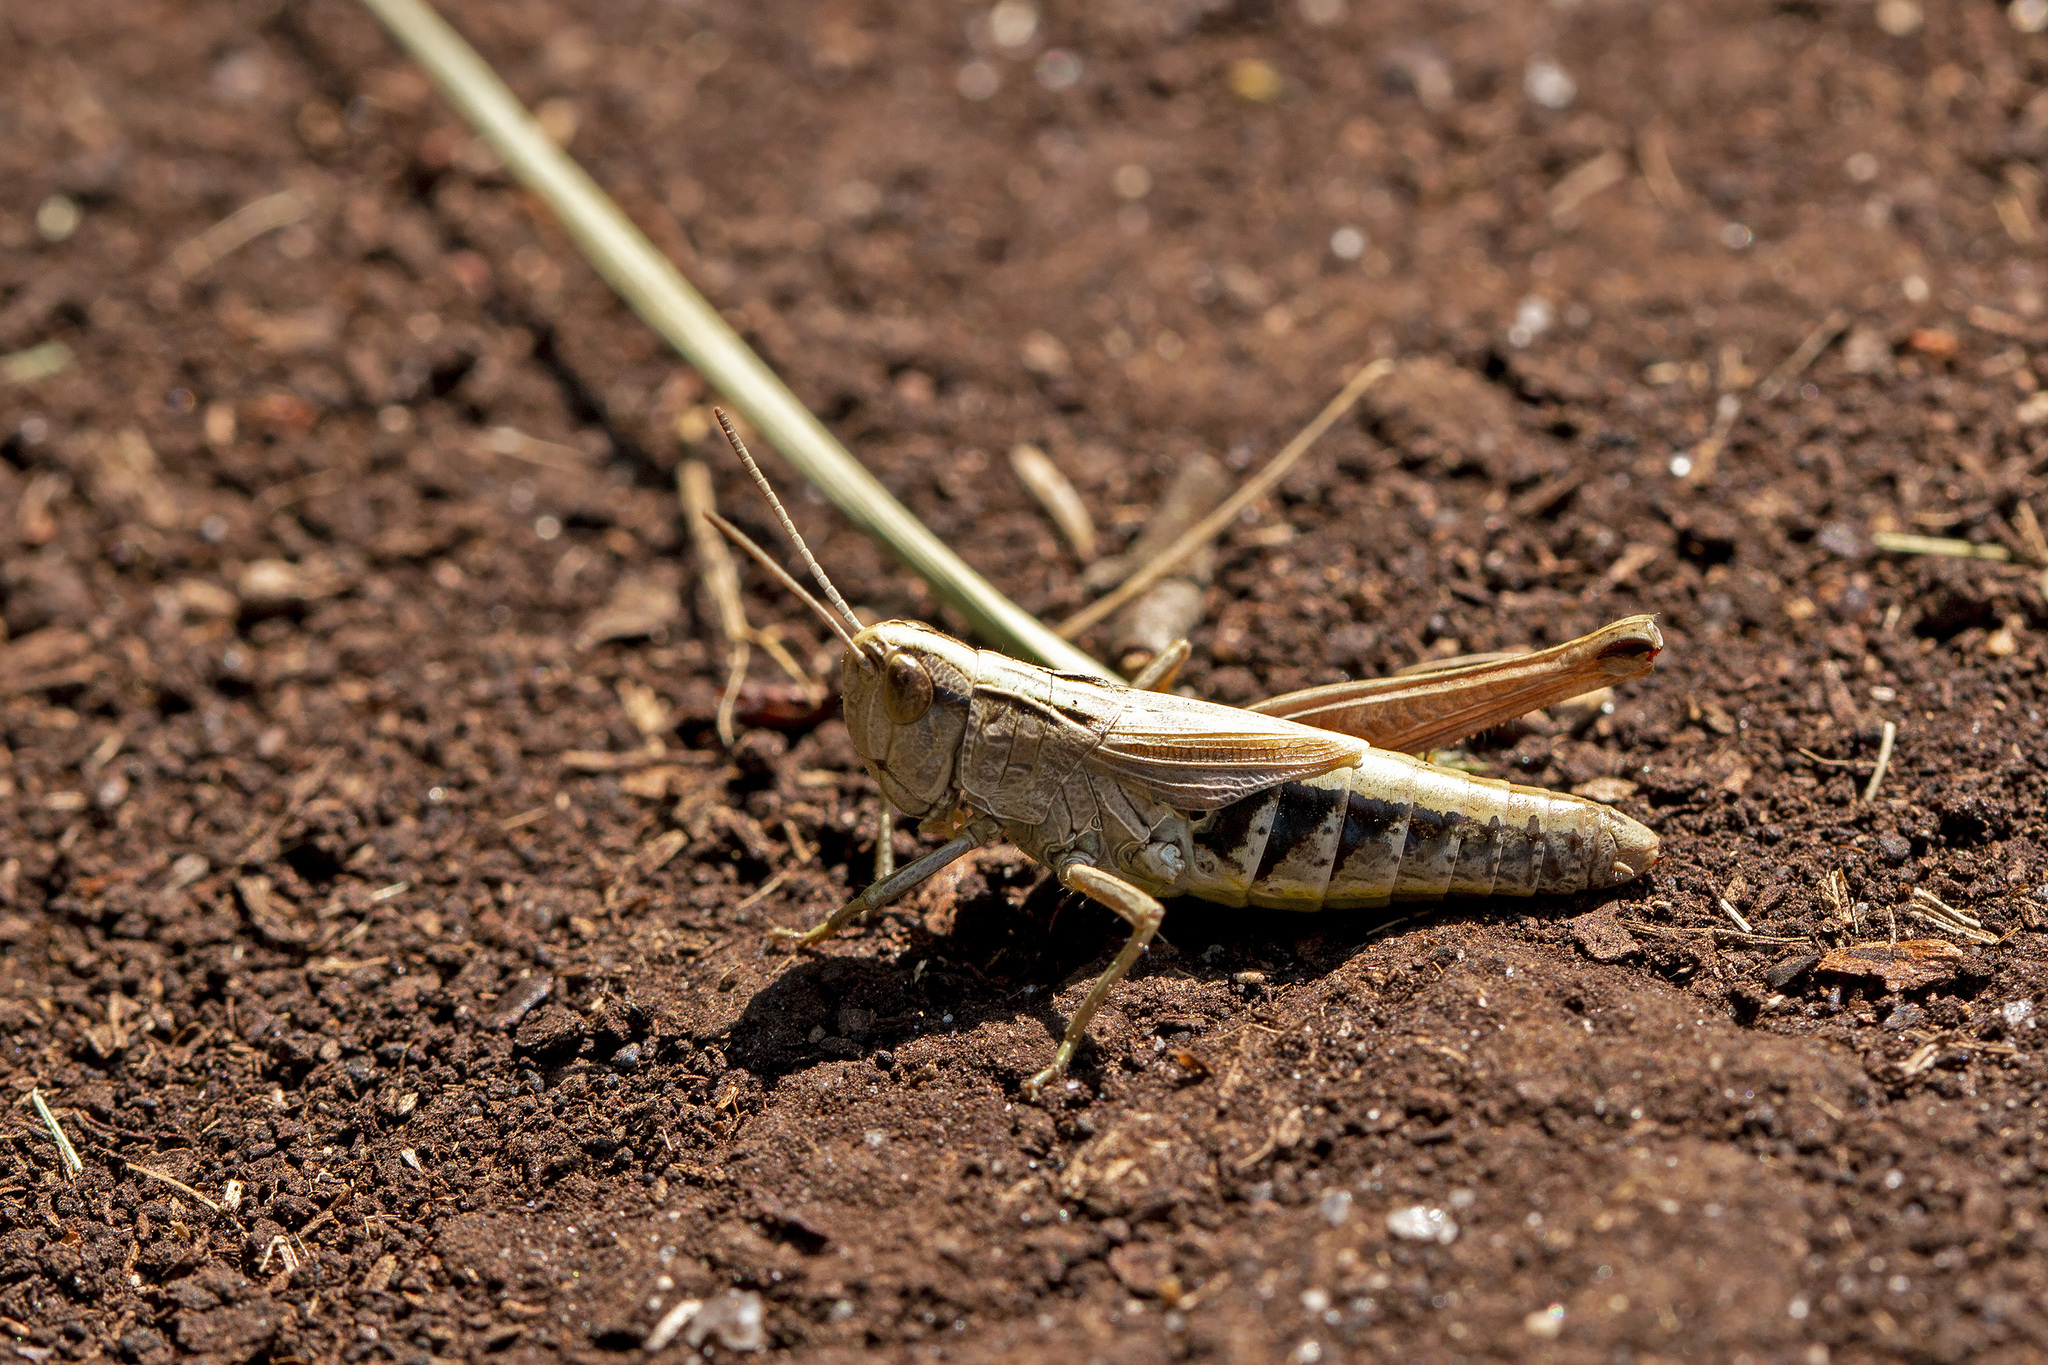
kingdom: Animalia
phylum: Arthropoda
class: Insecta
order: Orthoptera
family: Acrididae
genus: Pseudochorthippus
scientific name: Pseudochorthippus parallelus
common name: Meadow grasshopper
